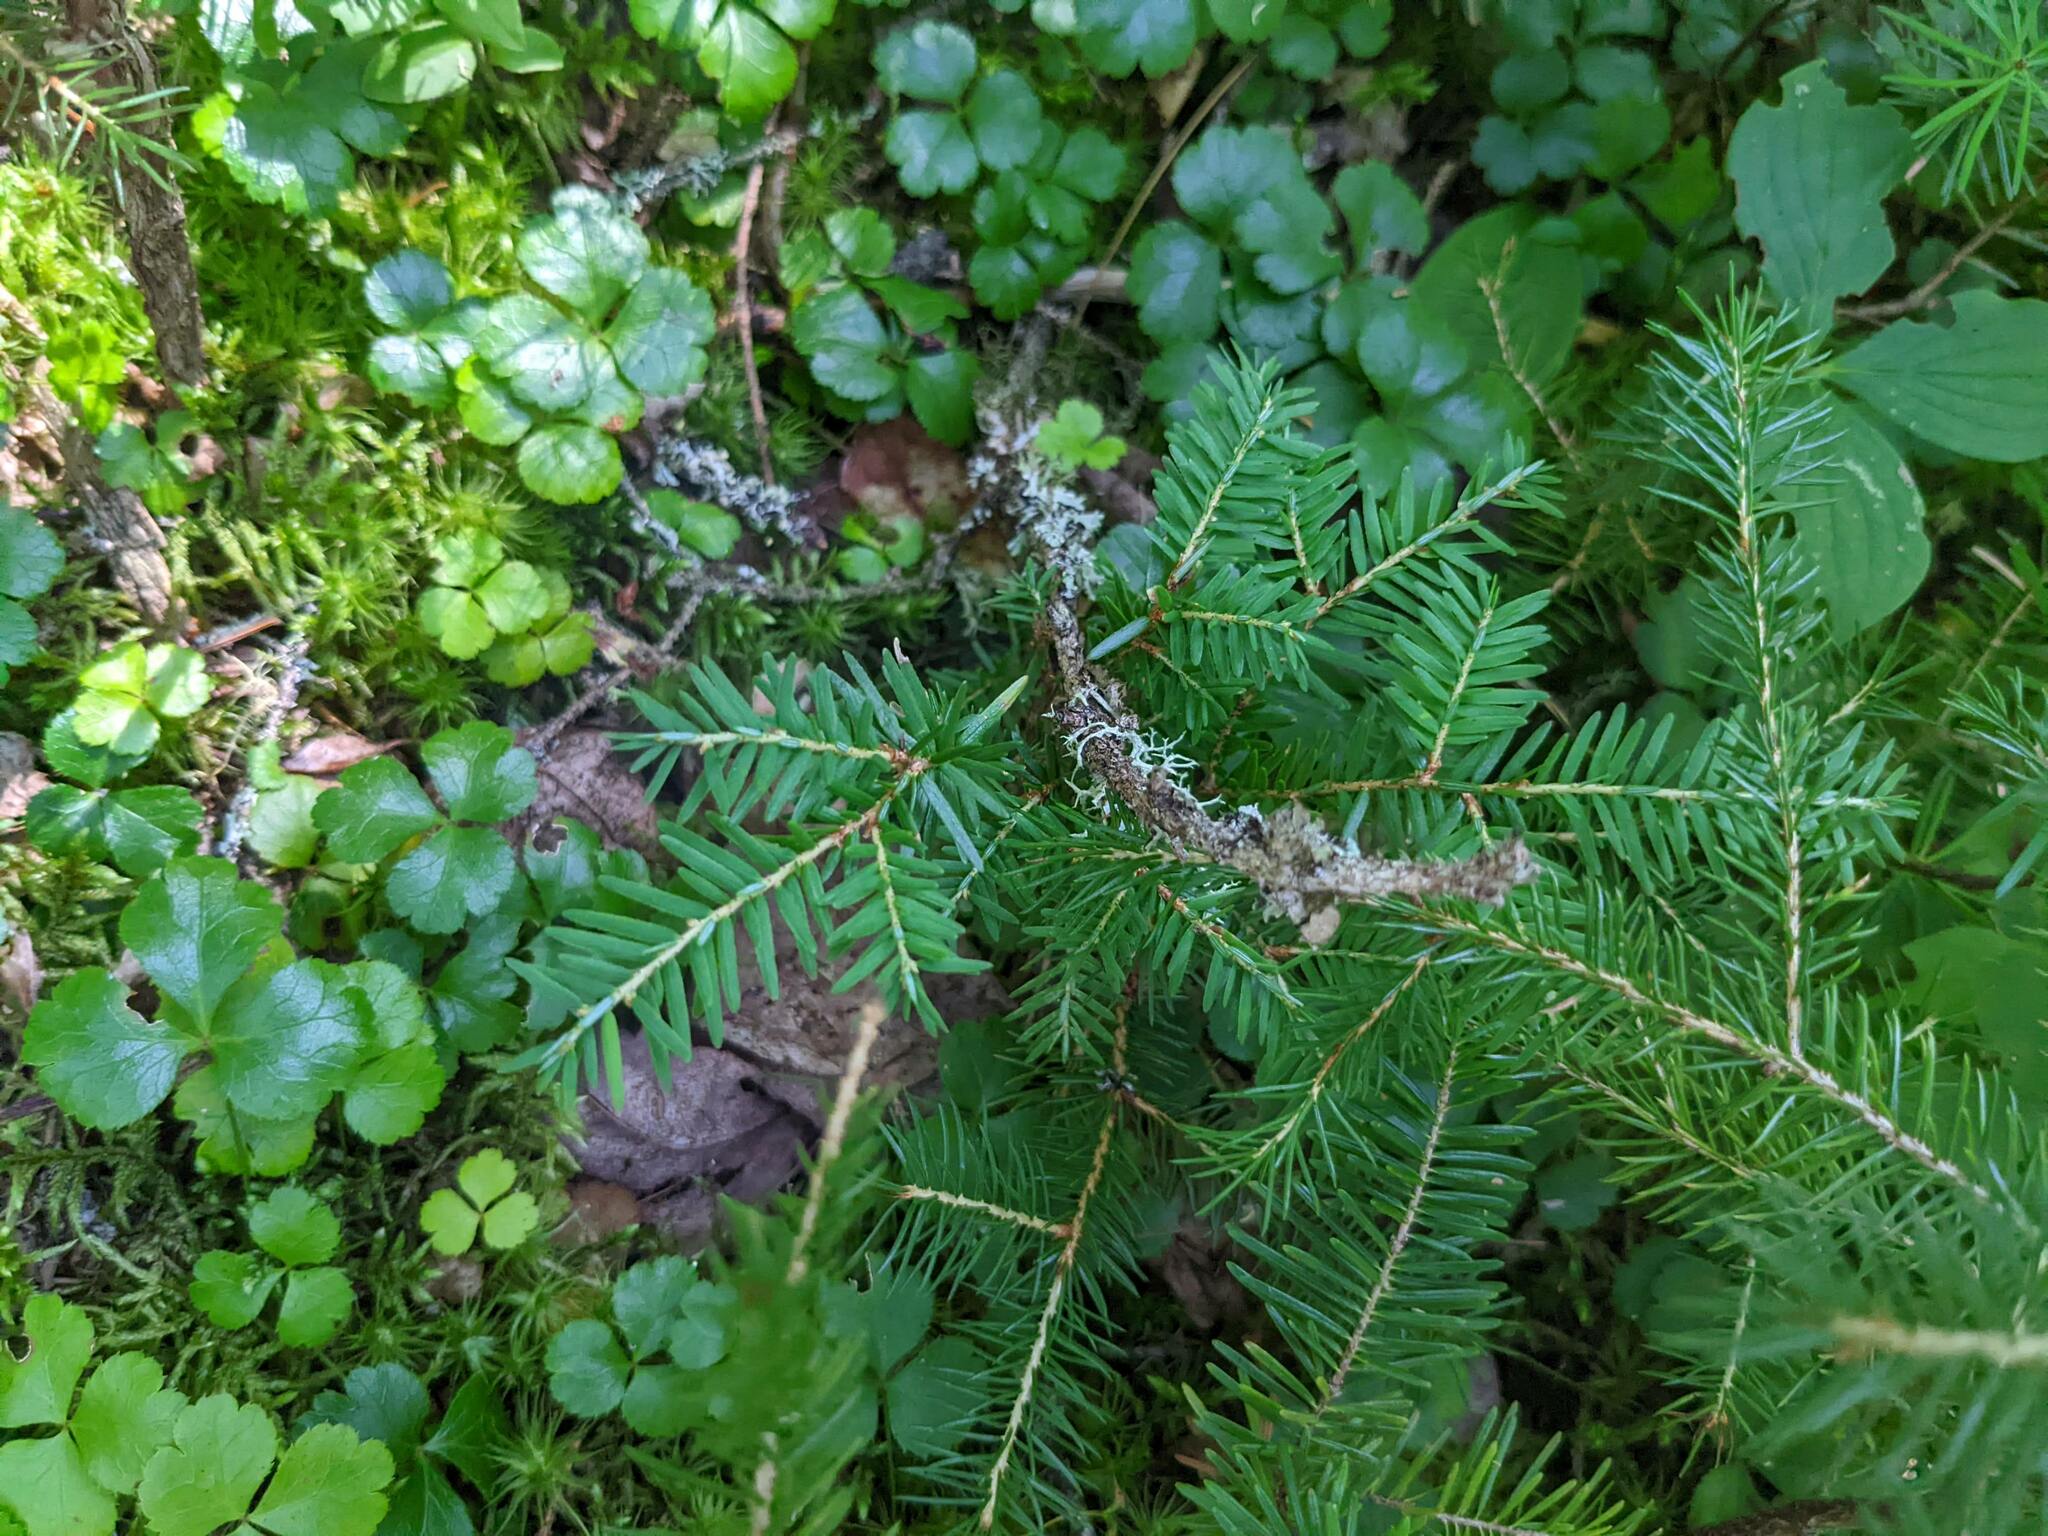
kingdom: Plantae
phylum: Tracheophyta
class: Pinopsida
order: Pinales
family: Pinaceae
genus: Tsuga
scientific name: Tsuga canadensis
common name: Eastern hemlock
